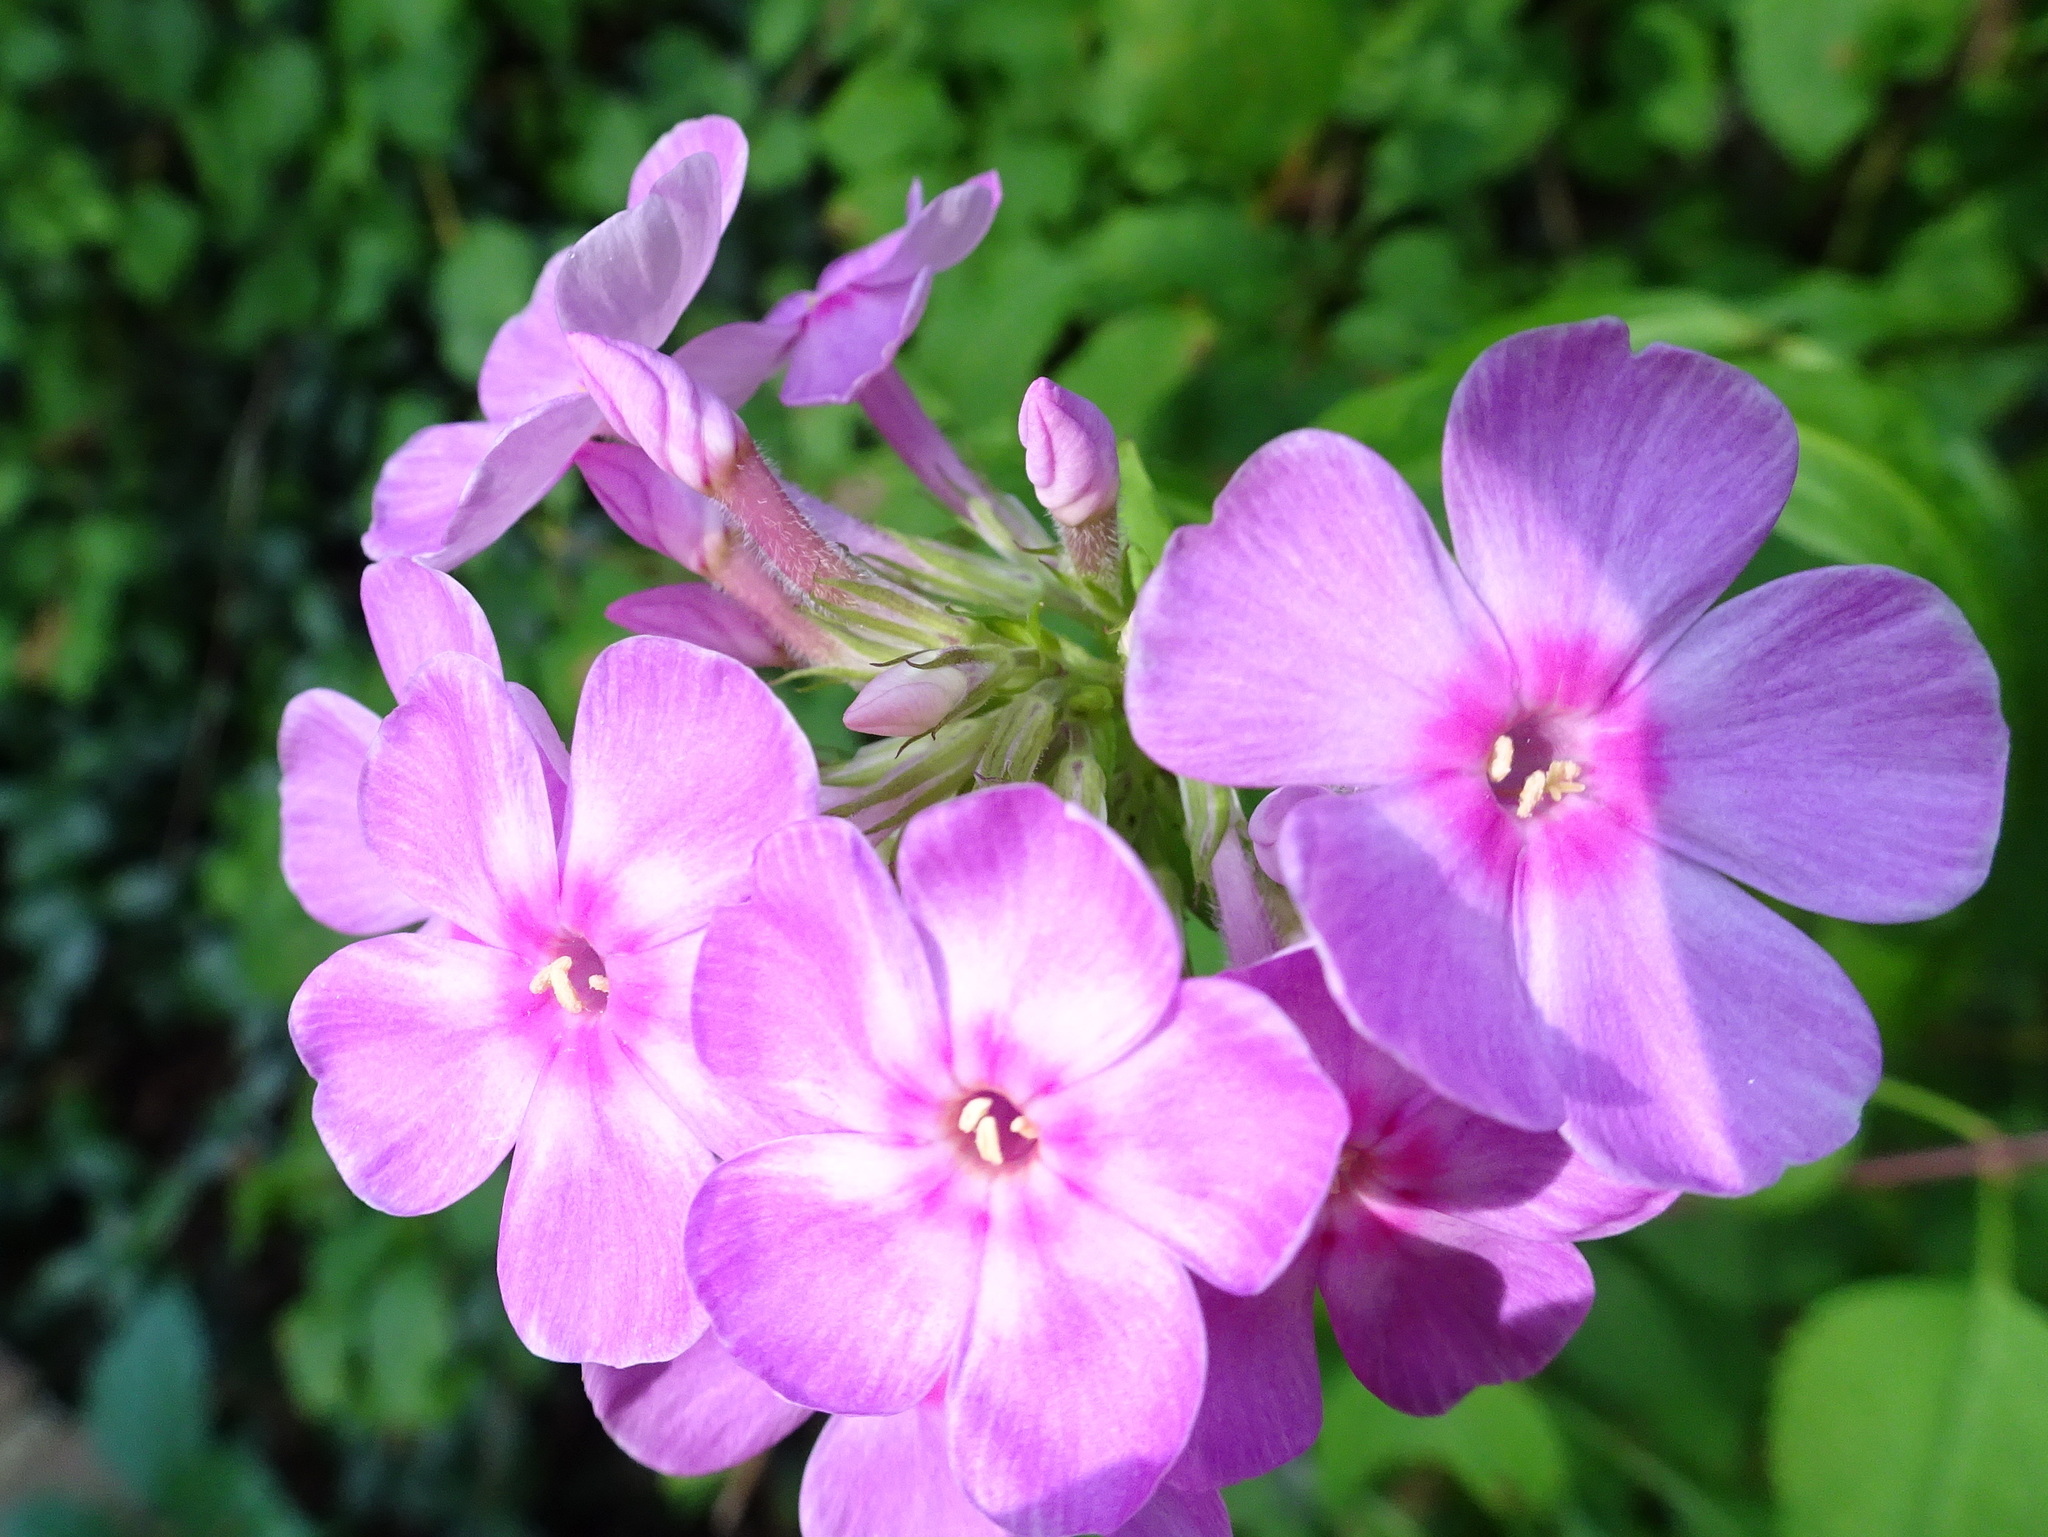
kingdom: Plantae
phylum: Tracheophyta
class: Magnoliopsida
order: Ericales
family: Polemoniaceae
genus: Phlox
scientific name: Phlox paniculata
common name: Fall phlox
